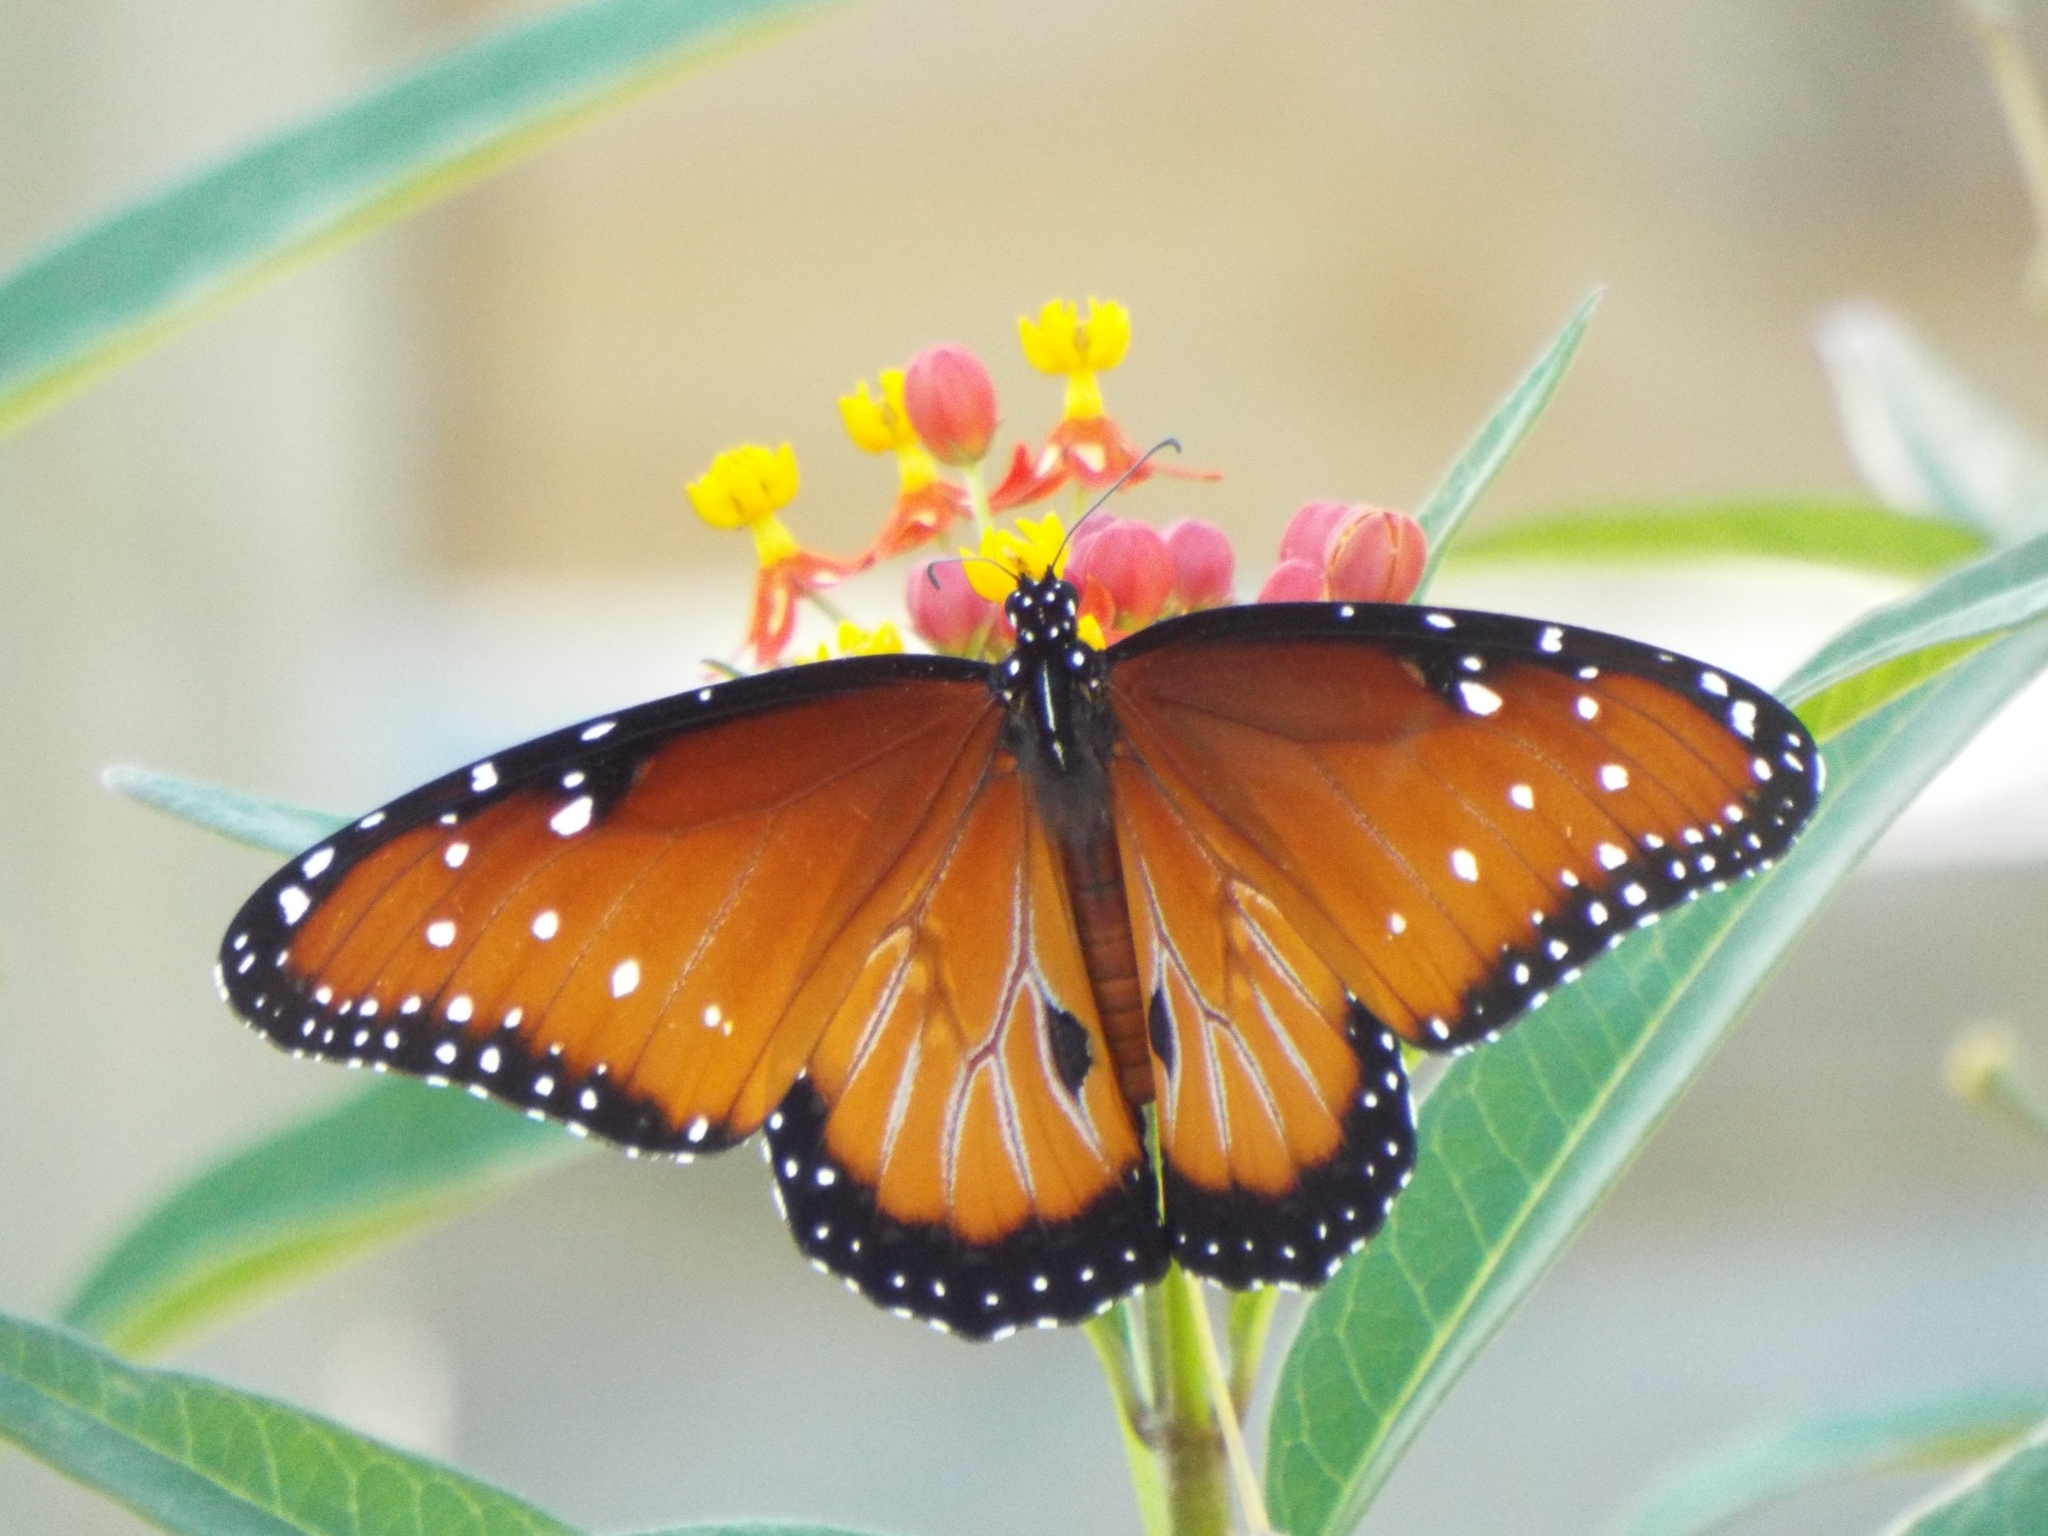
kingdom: Animalia
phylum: Arthropoda
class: Insecta
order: Lepidoptera
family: Nymphalidae
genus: Danaus
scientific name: Danaus gilippus
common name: Queen
